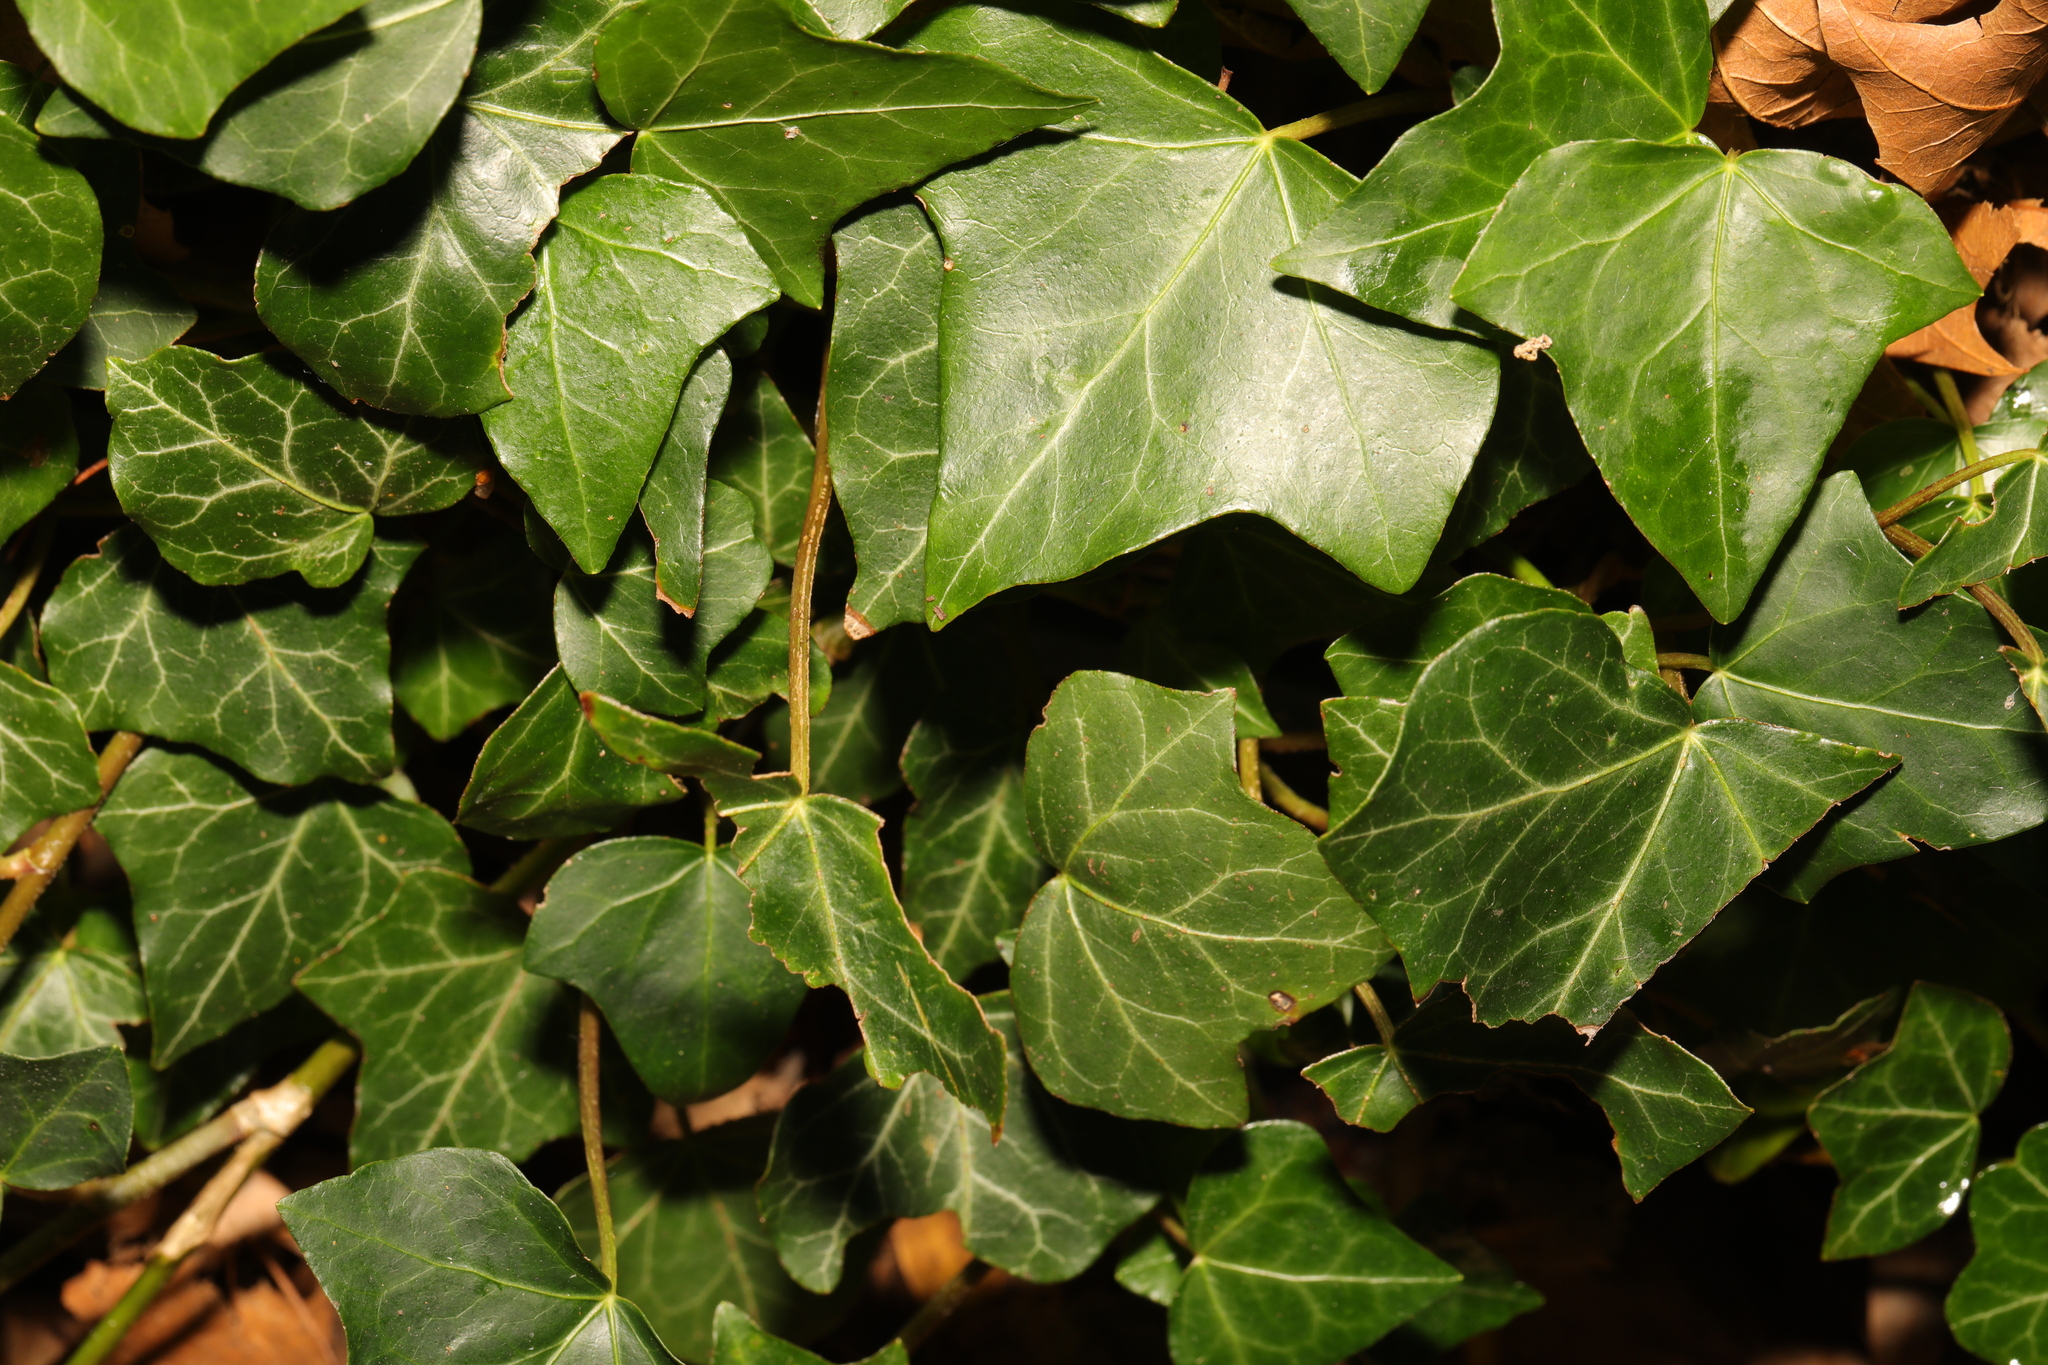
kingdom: Plantae
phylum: Tracheophyta
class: Magnoliopsida
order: Apiales
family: Araliaceae
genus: Hedera
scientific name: Hedera helix
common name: Ivy
